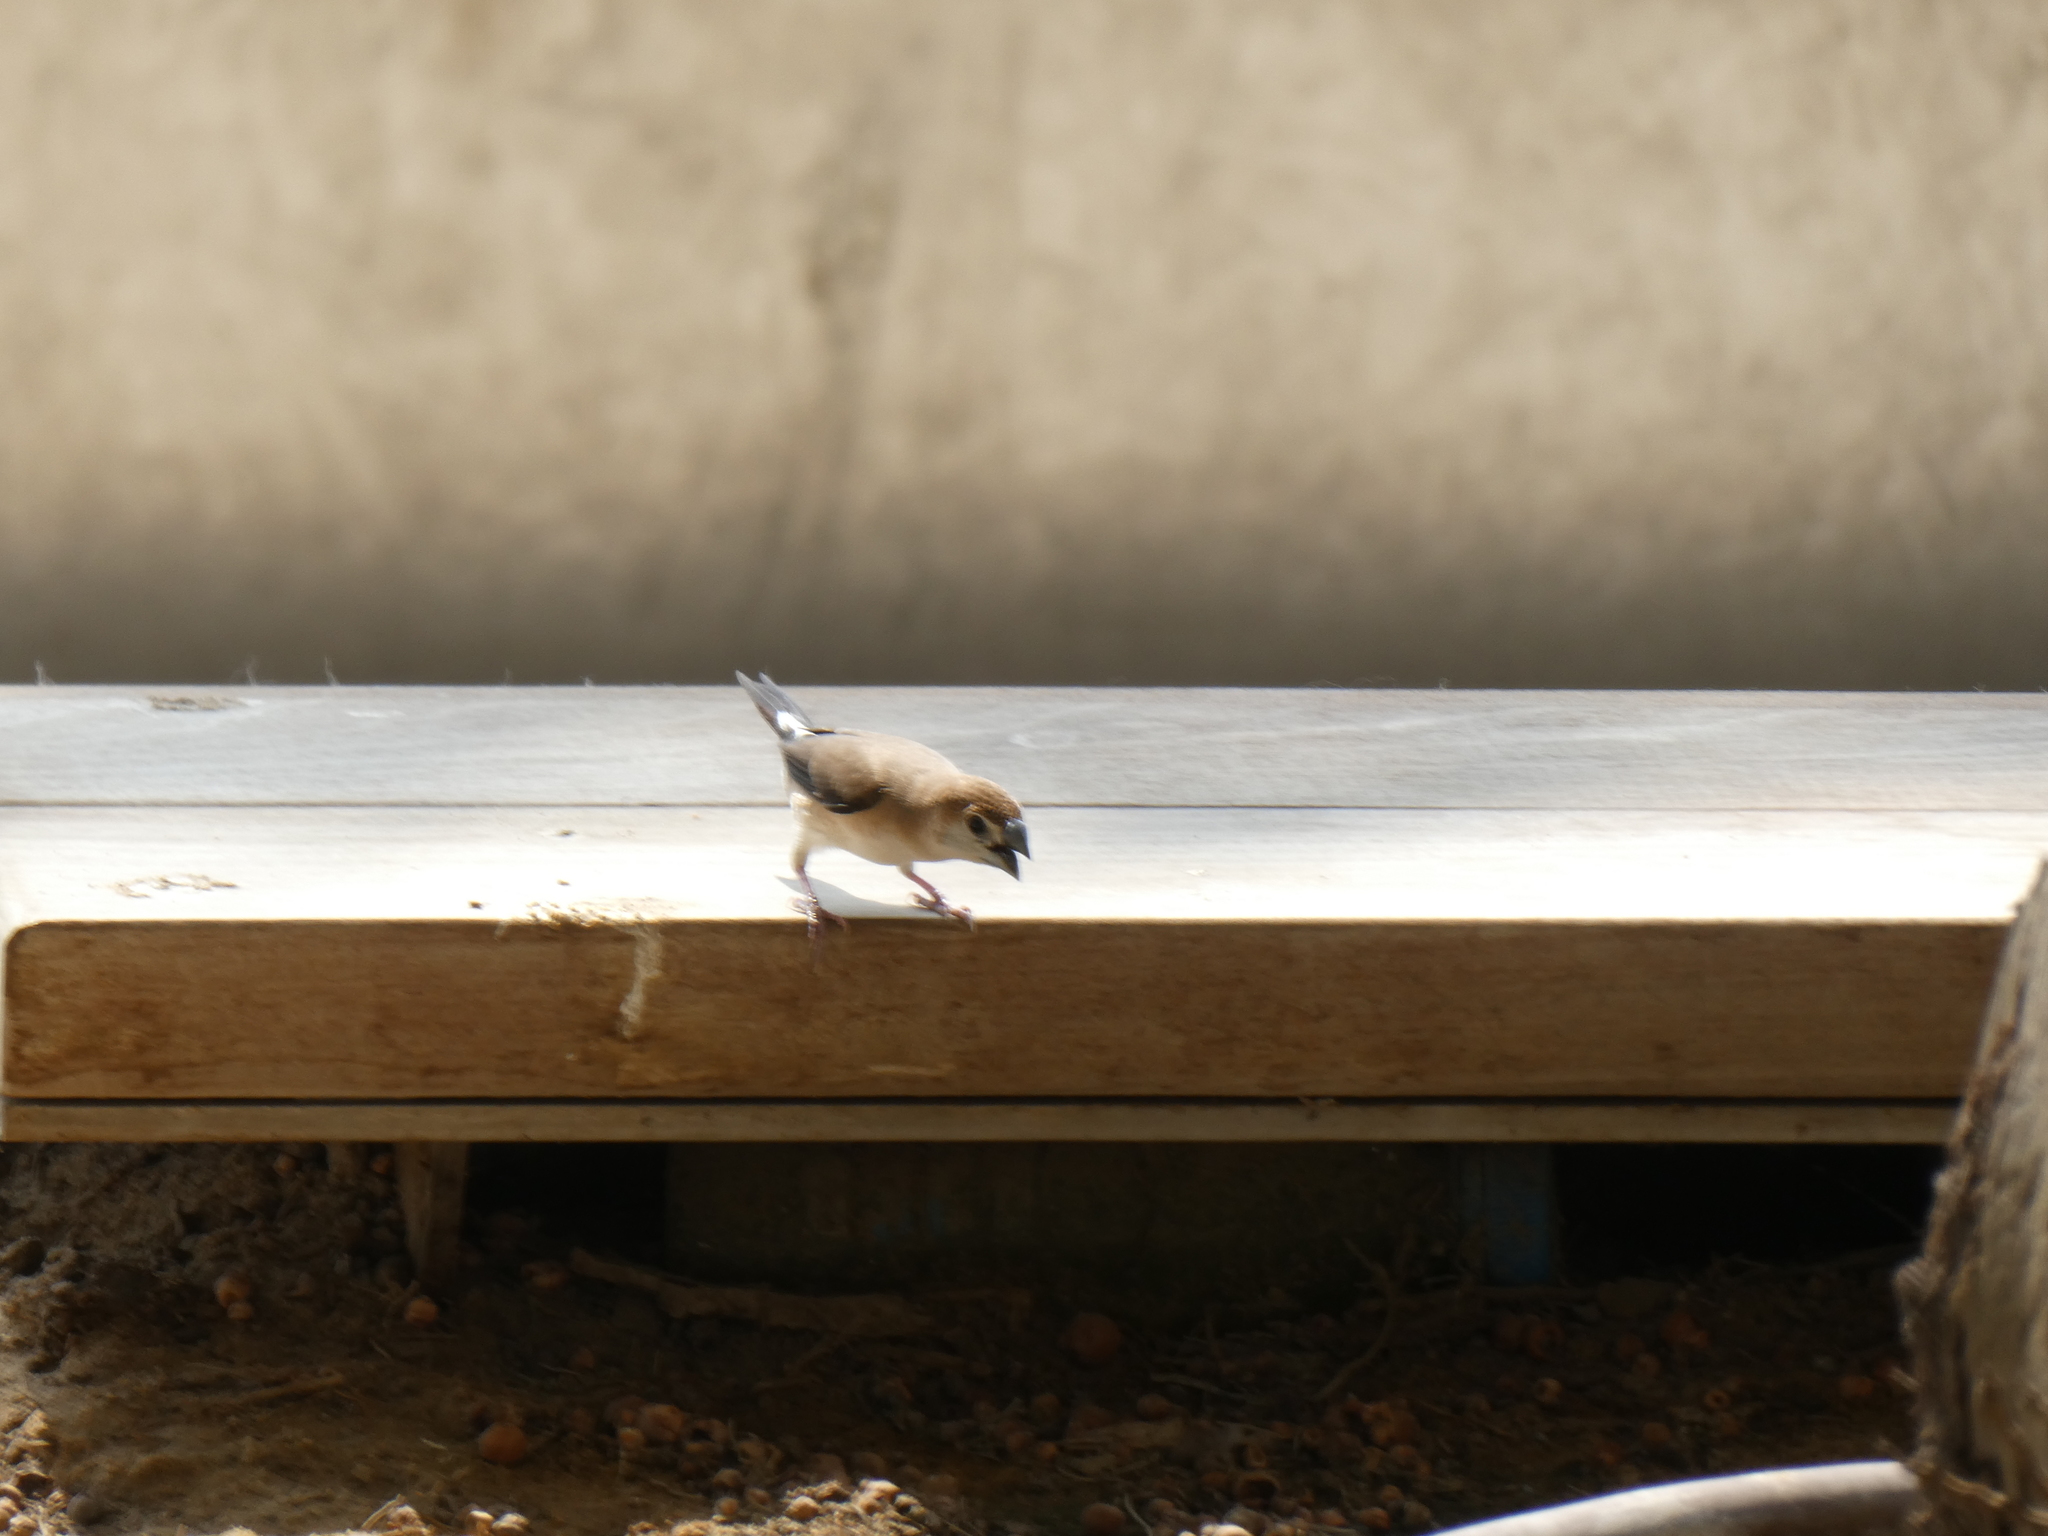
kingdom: Animalia
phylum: Chordata
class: Aves
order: Passeriformes
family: Estrildidae
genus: Euodice
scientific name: Euodice malabarica
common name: Indian silverbill
